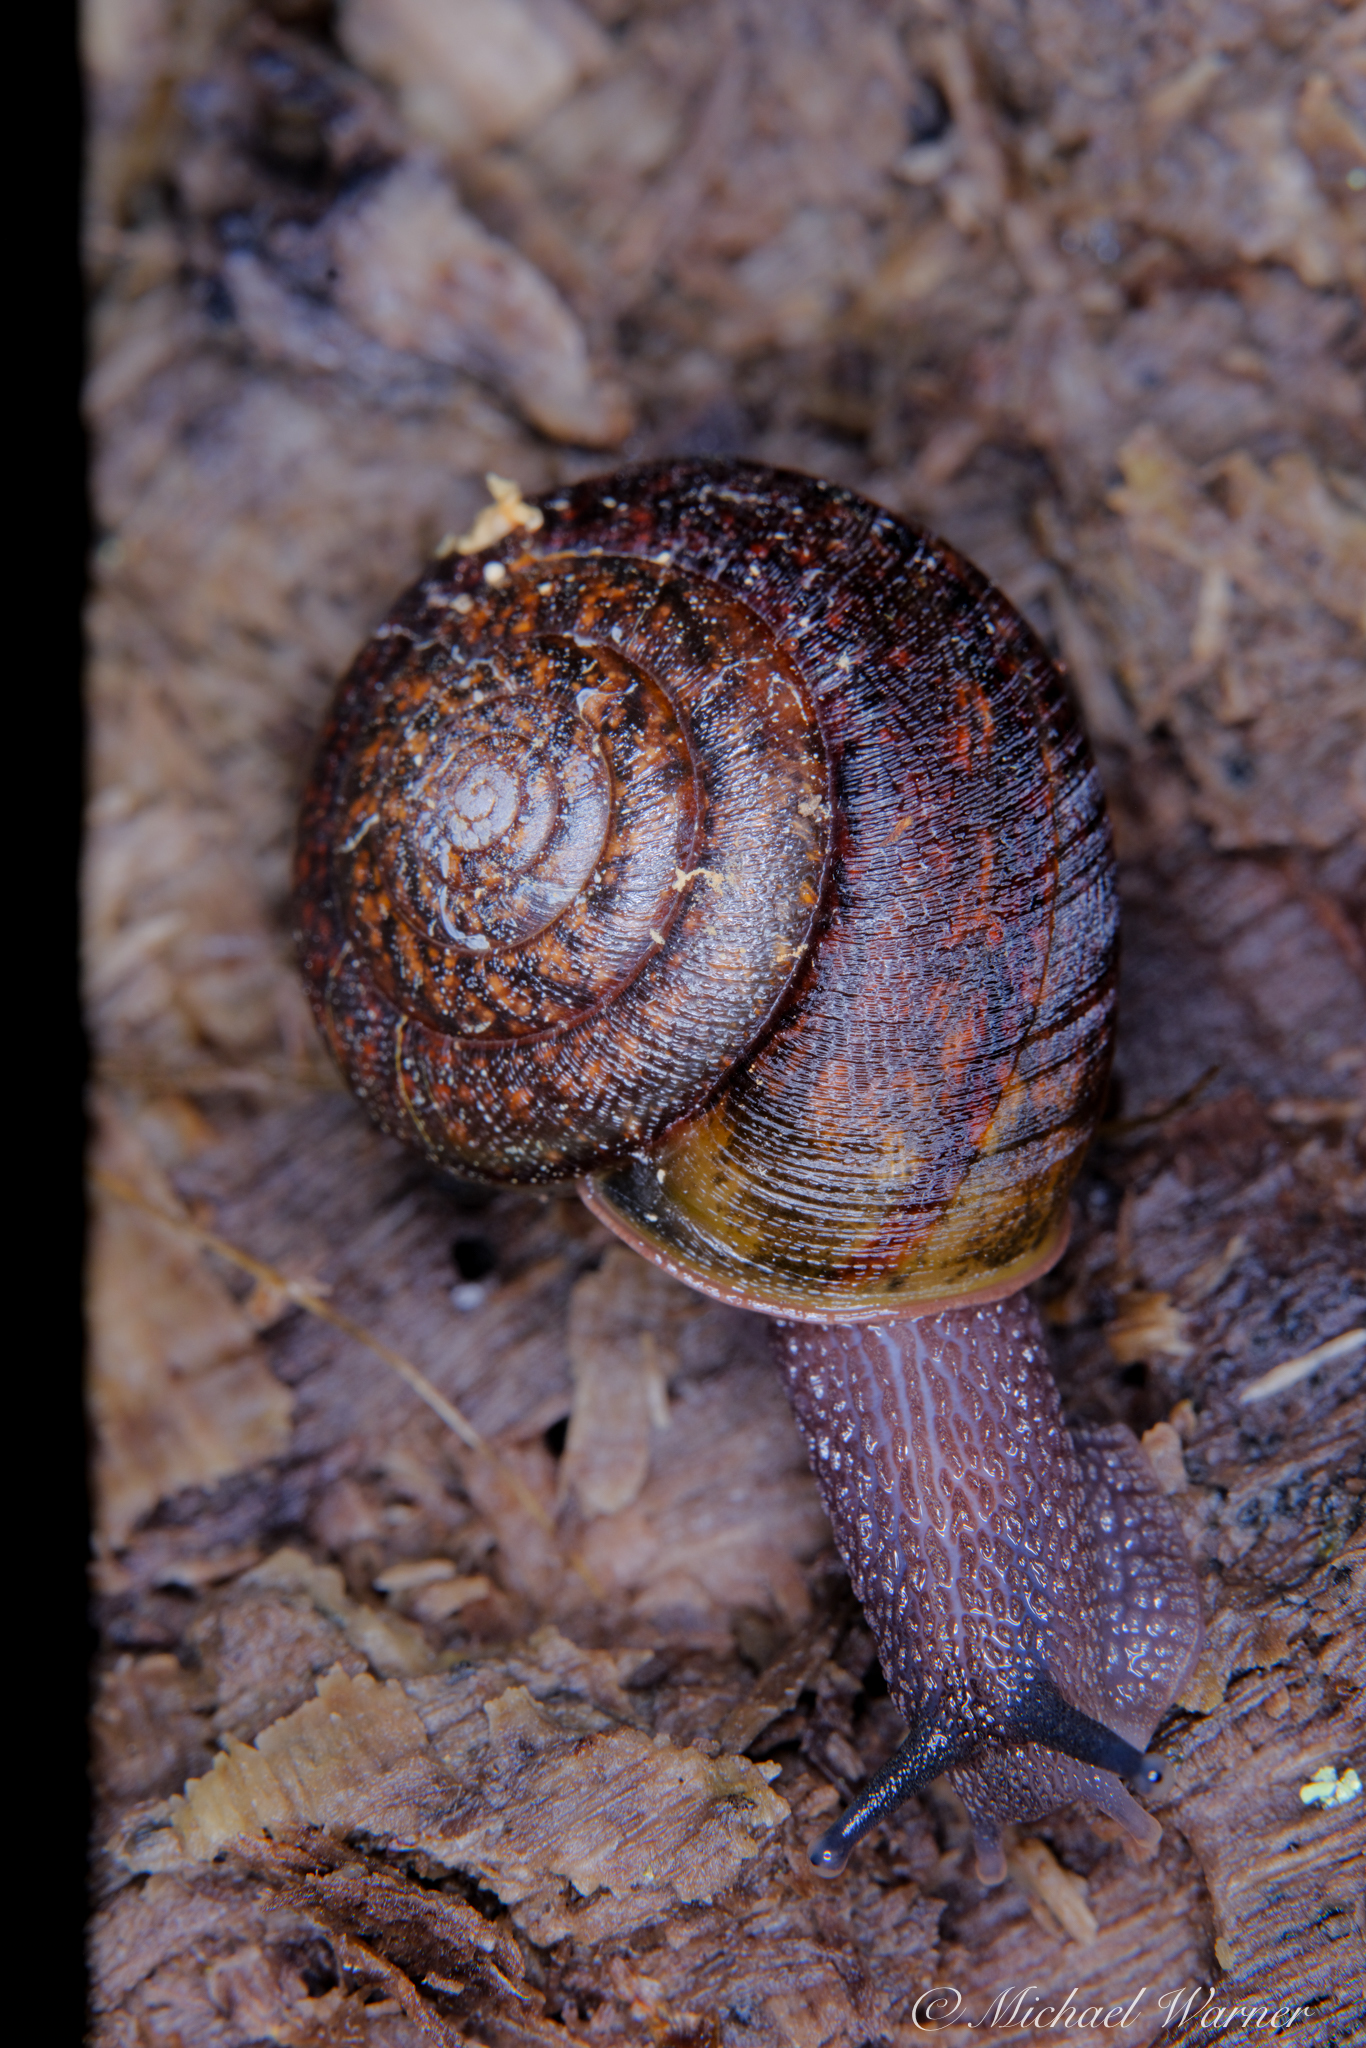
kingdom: Animalia
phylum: Mollusca
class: Gastropoda
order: Stylommatophora
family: Xanthonychidae
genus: Helminthoglypta
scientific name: Helminthoglypta diabloensis
